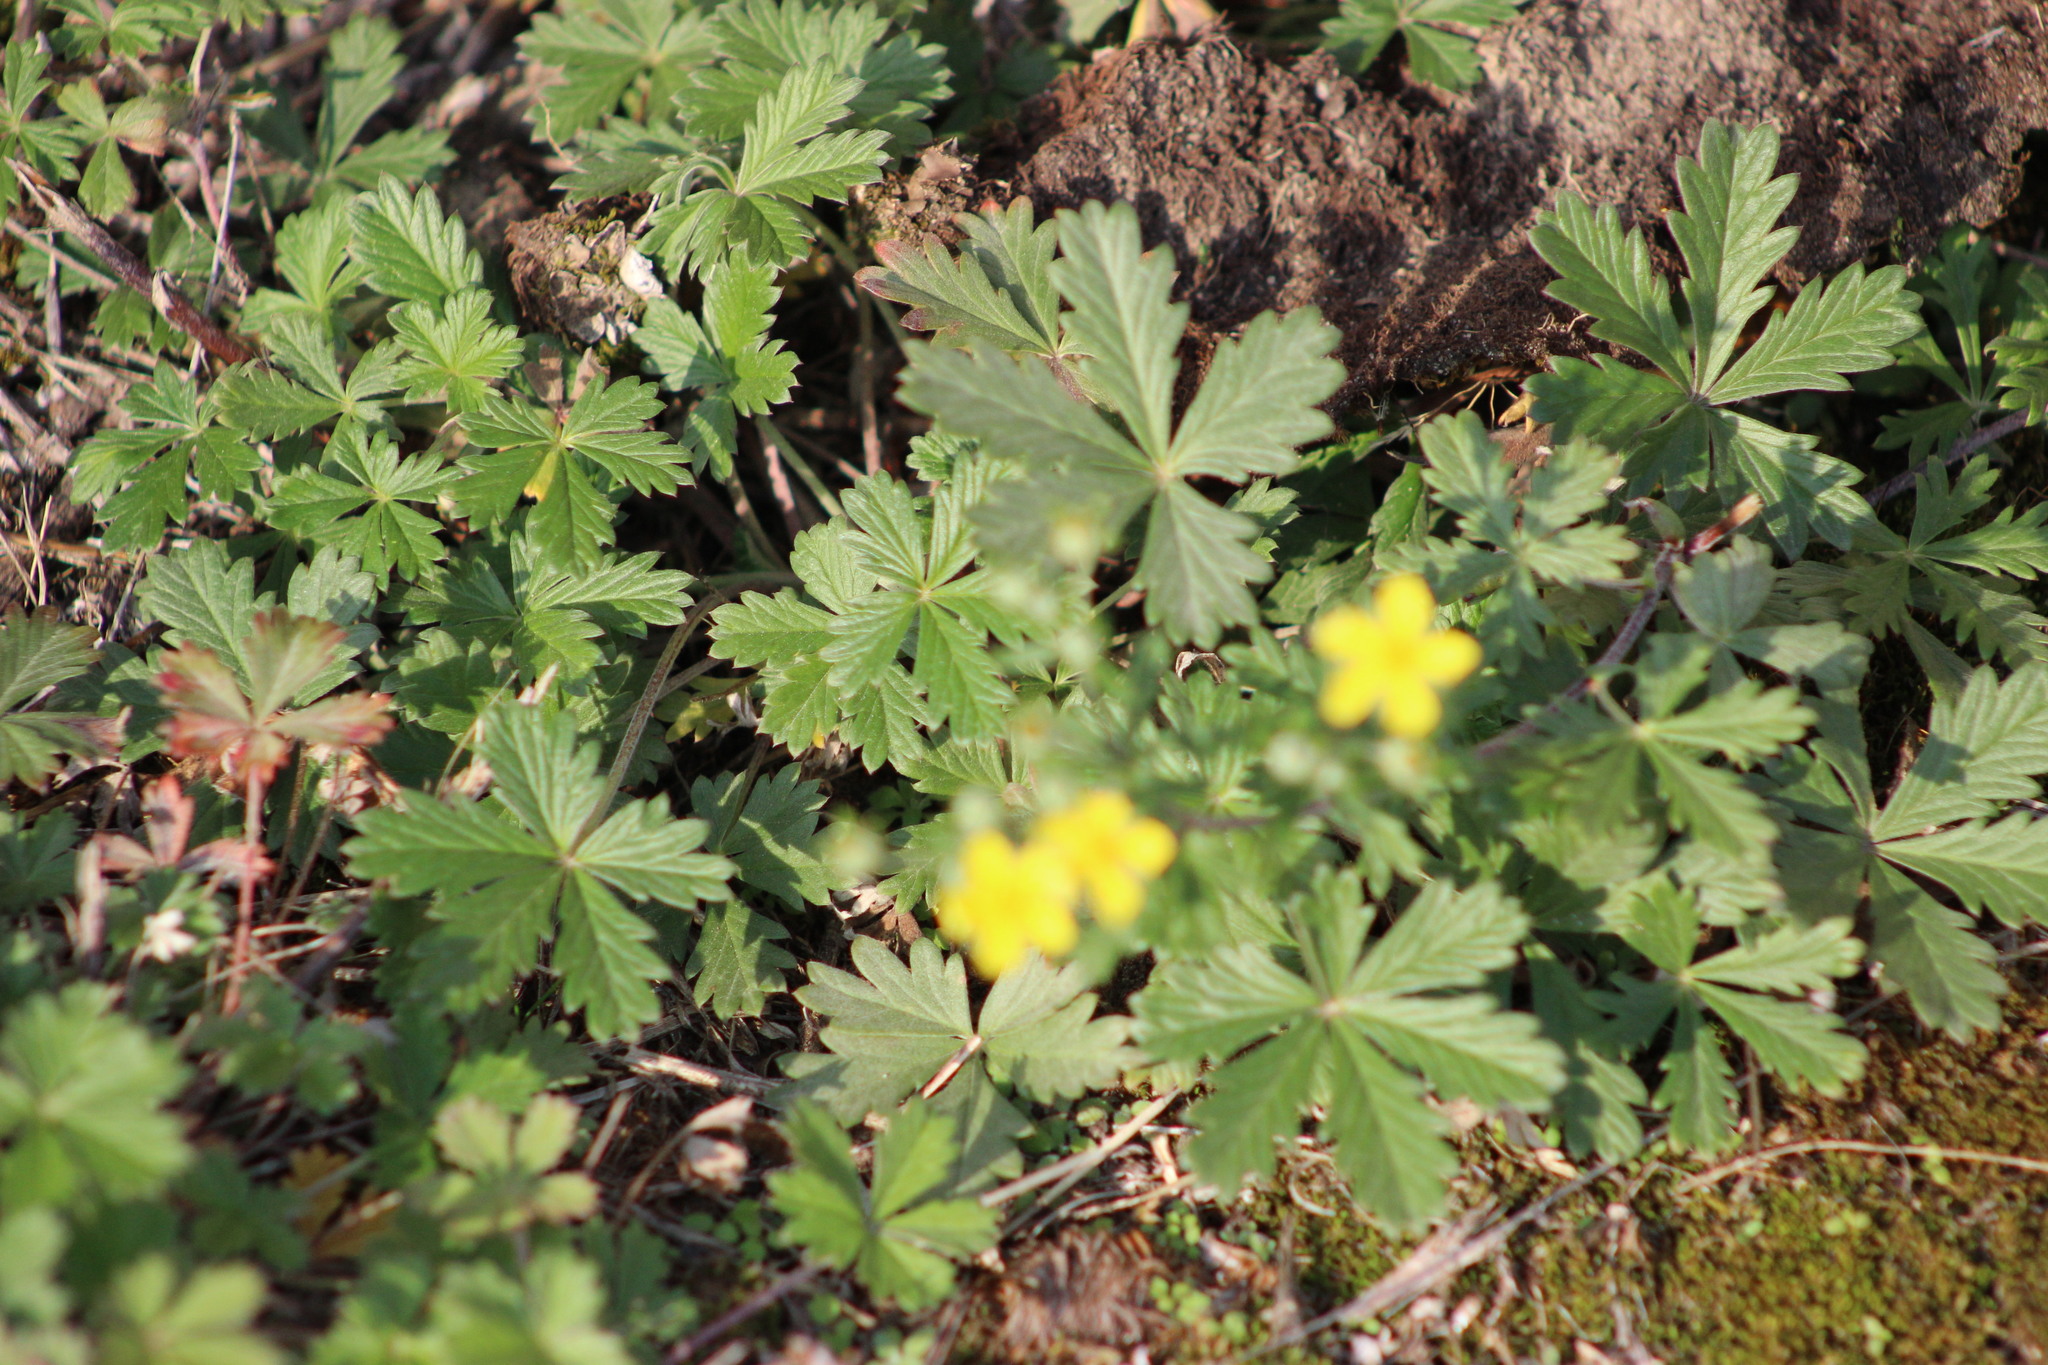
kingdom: Plantae
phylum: Tracheophyta
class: Magnoliopsida
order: Rosales
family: Rosaceae
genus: Potentilla
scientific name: Potentilla argentea
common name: Hoary cinquefoil
